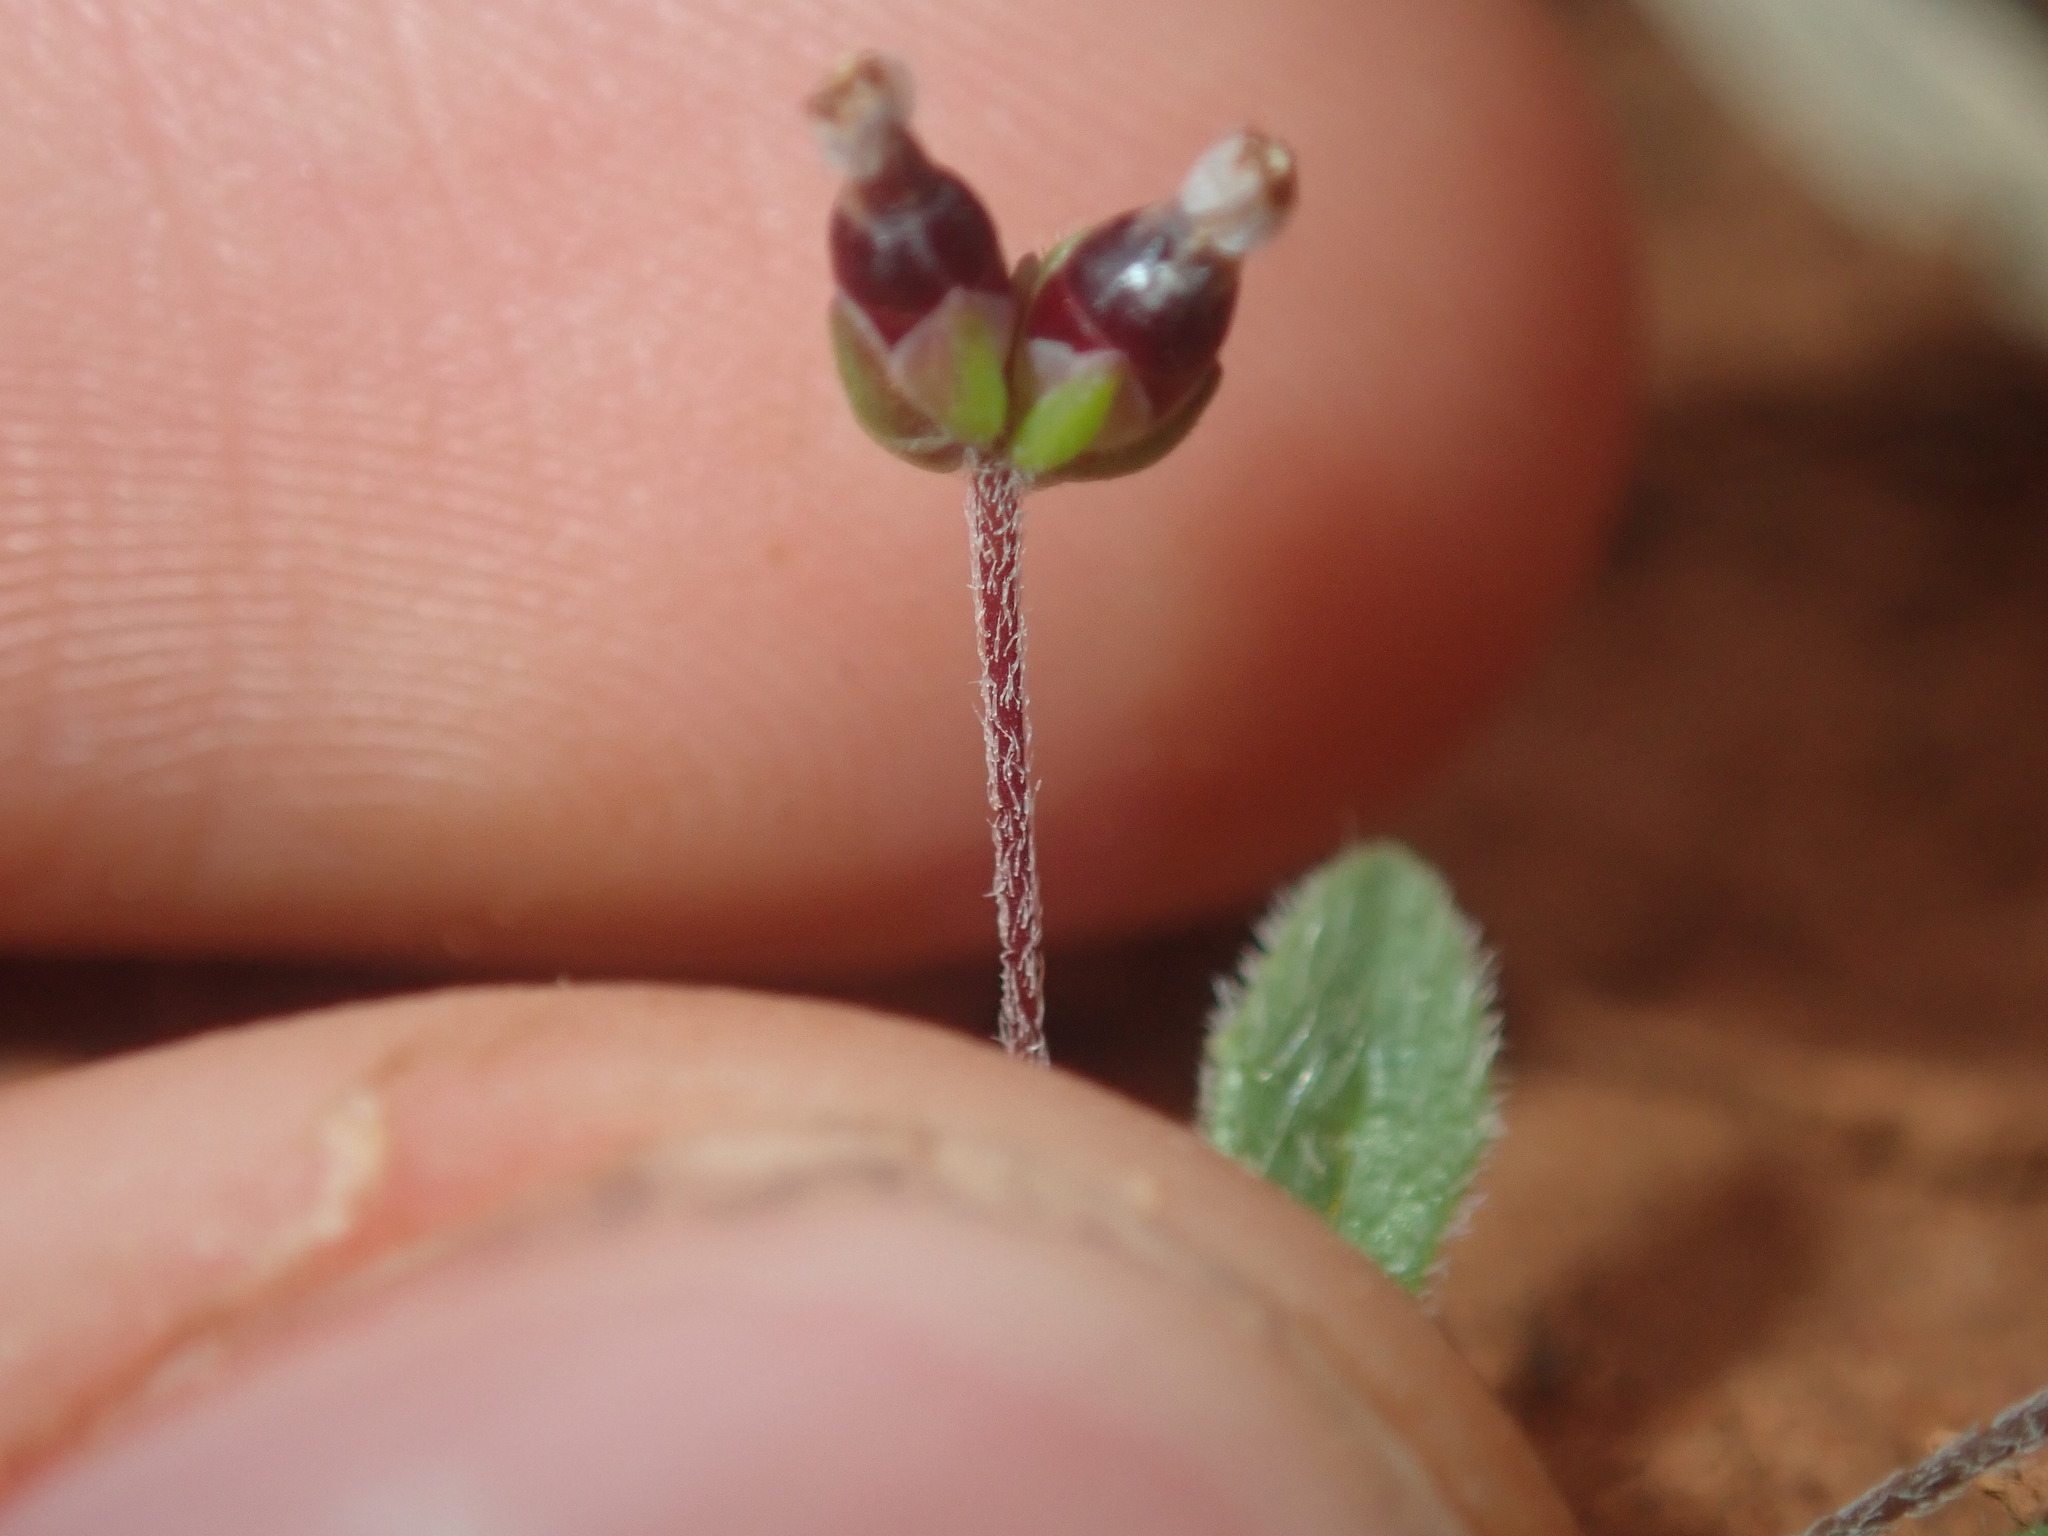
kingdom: Plantae
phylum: Tracheophyta
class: Magnoliopsida
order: Lamiales
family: Plantaginaceae
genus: Plantago
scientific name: Plantago turrifera
